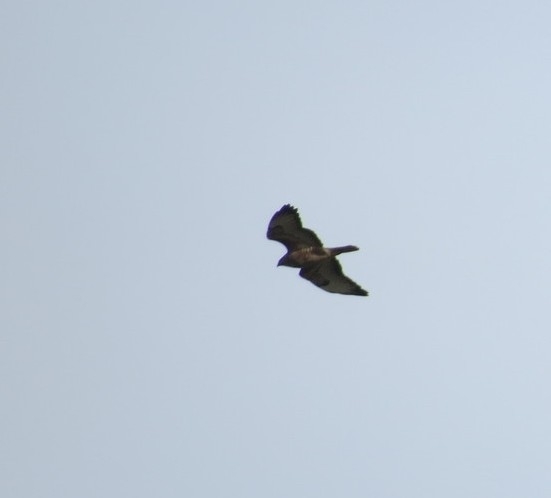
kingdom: Animalia
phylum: Chordata
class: Aves
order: Accipitriformes
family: Accipitridae
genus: Buteo
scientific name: Buteo buteo
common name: Common buzzard
